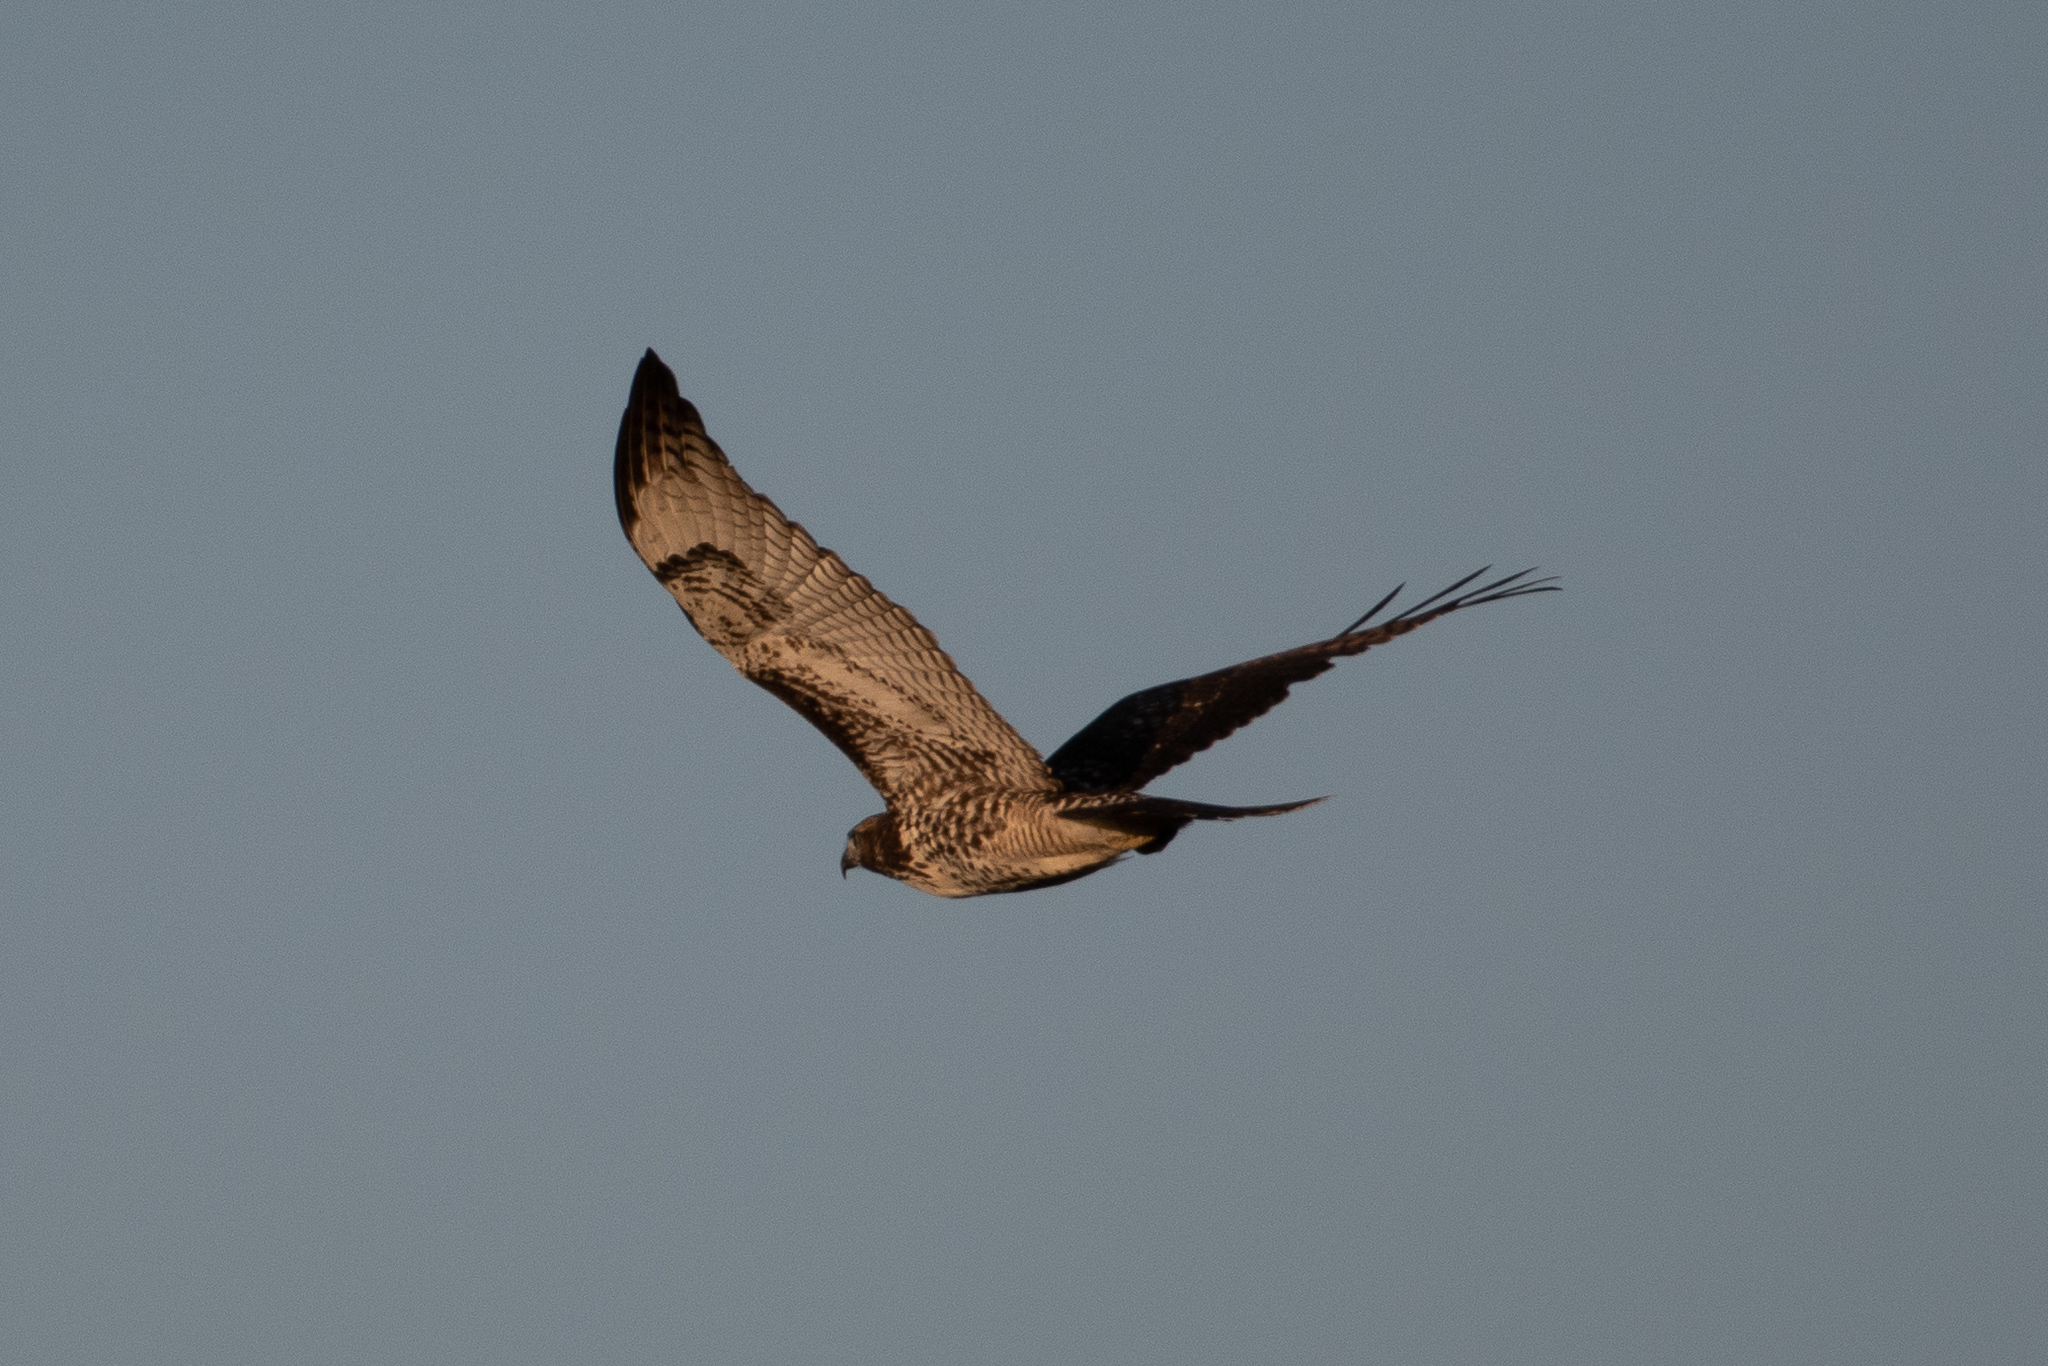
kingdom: Animalia
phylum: Chordata
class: Aves
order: Accipitriformes
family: Accipitridae
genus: Buteo
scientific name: Buteo jamaicensis
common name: Red-tailed hawk
